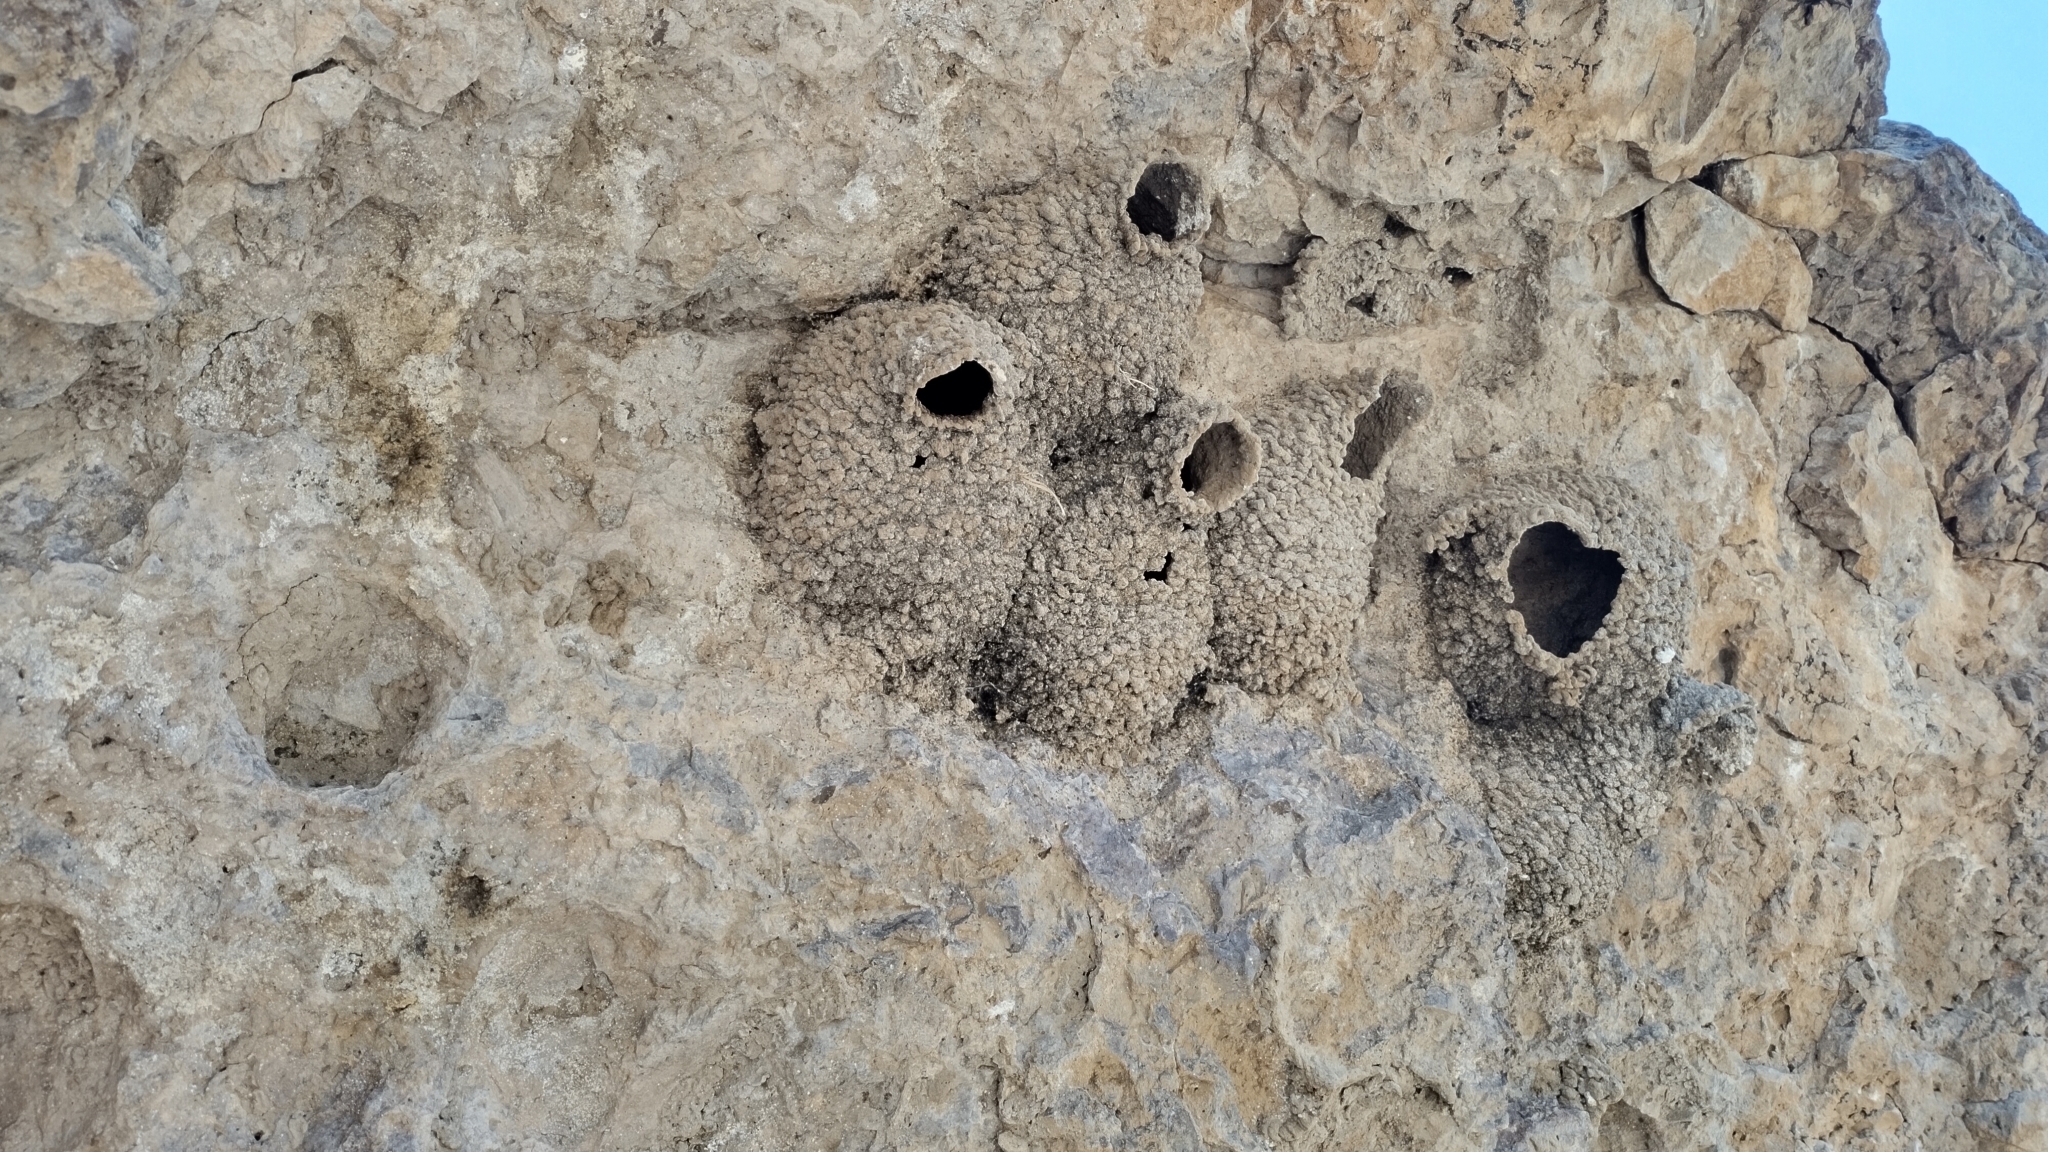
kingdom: Animalia
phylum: Chordata
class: Aves
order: Passeriformes
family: Hirundinidae
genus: Petrochelidon
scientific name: Petrochelidon pyrrhonota
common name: American cliff swallow
